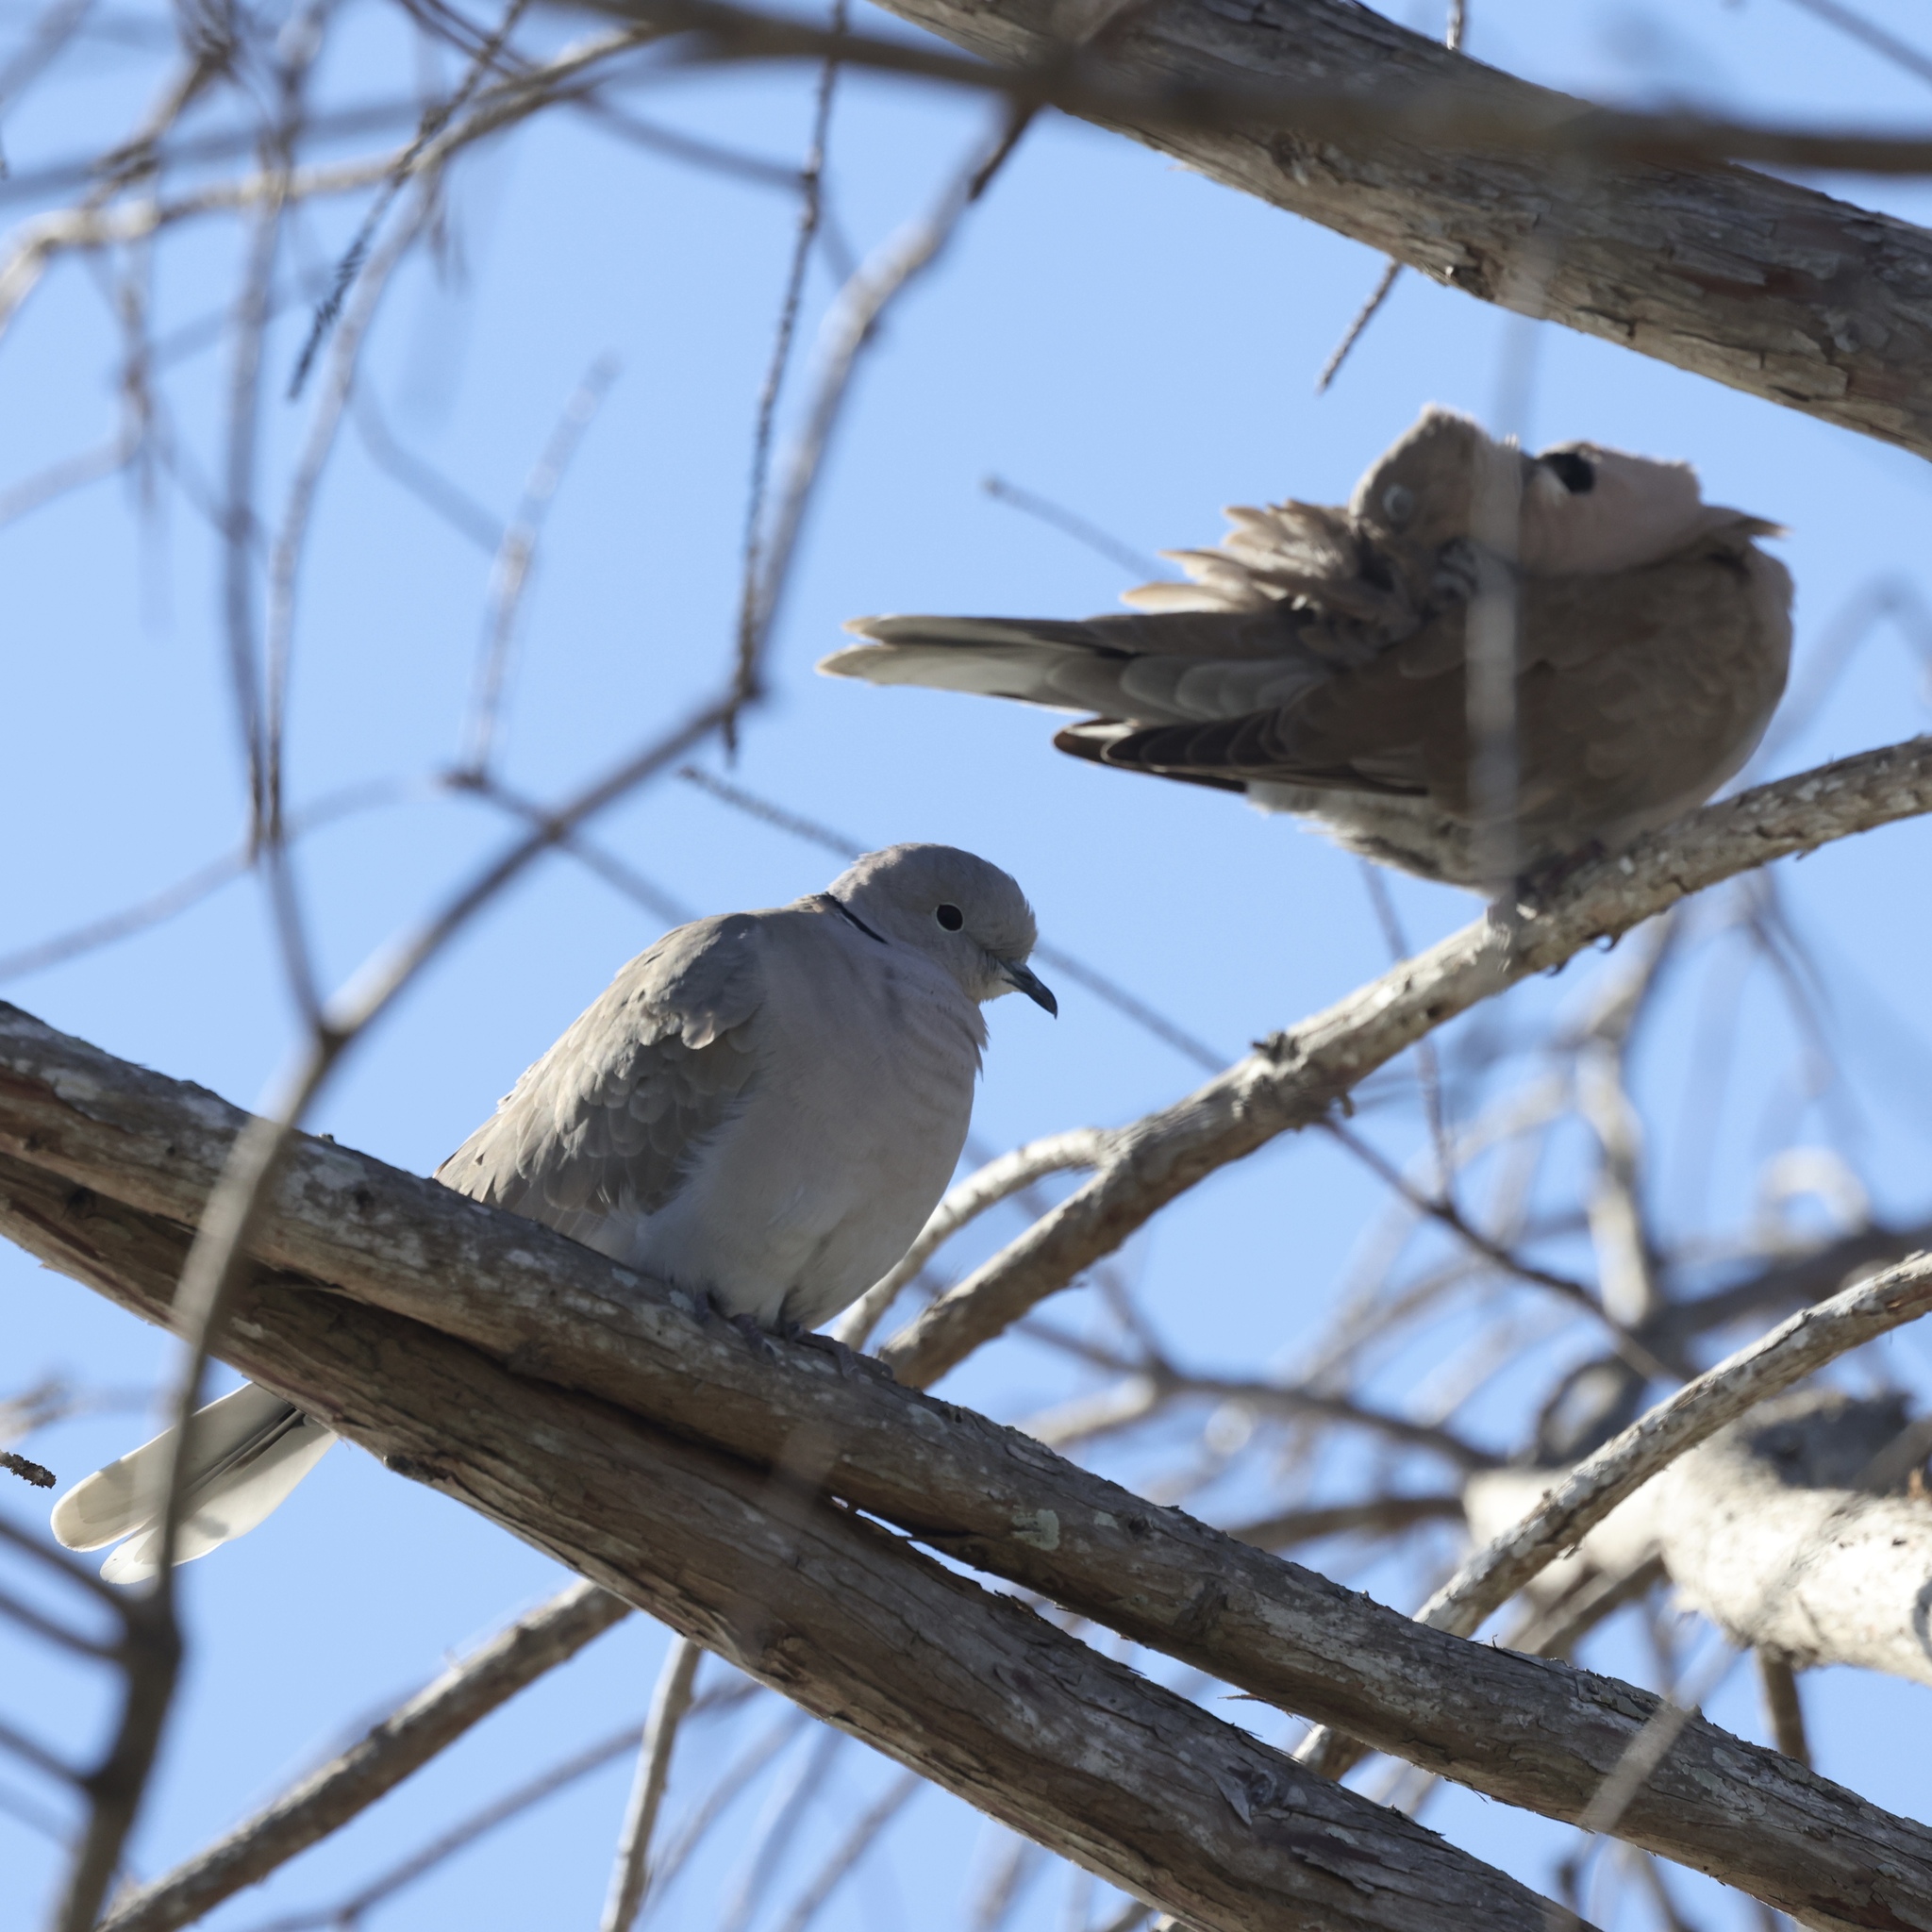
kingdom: Animalia
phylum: Chordata
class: Aves
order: Columbiformes
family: Columbidae
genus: Streptopelia
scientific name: Streptopelia decaocto
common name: Eurasian collared dove
